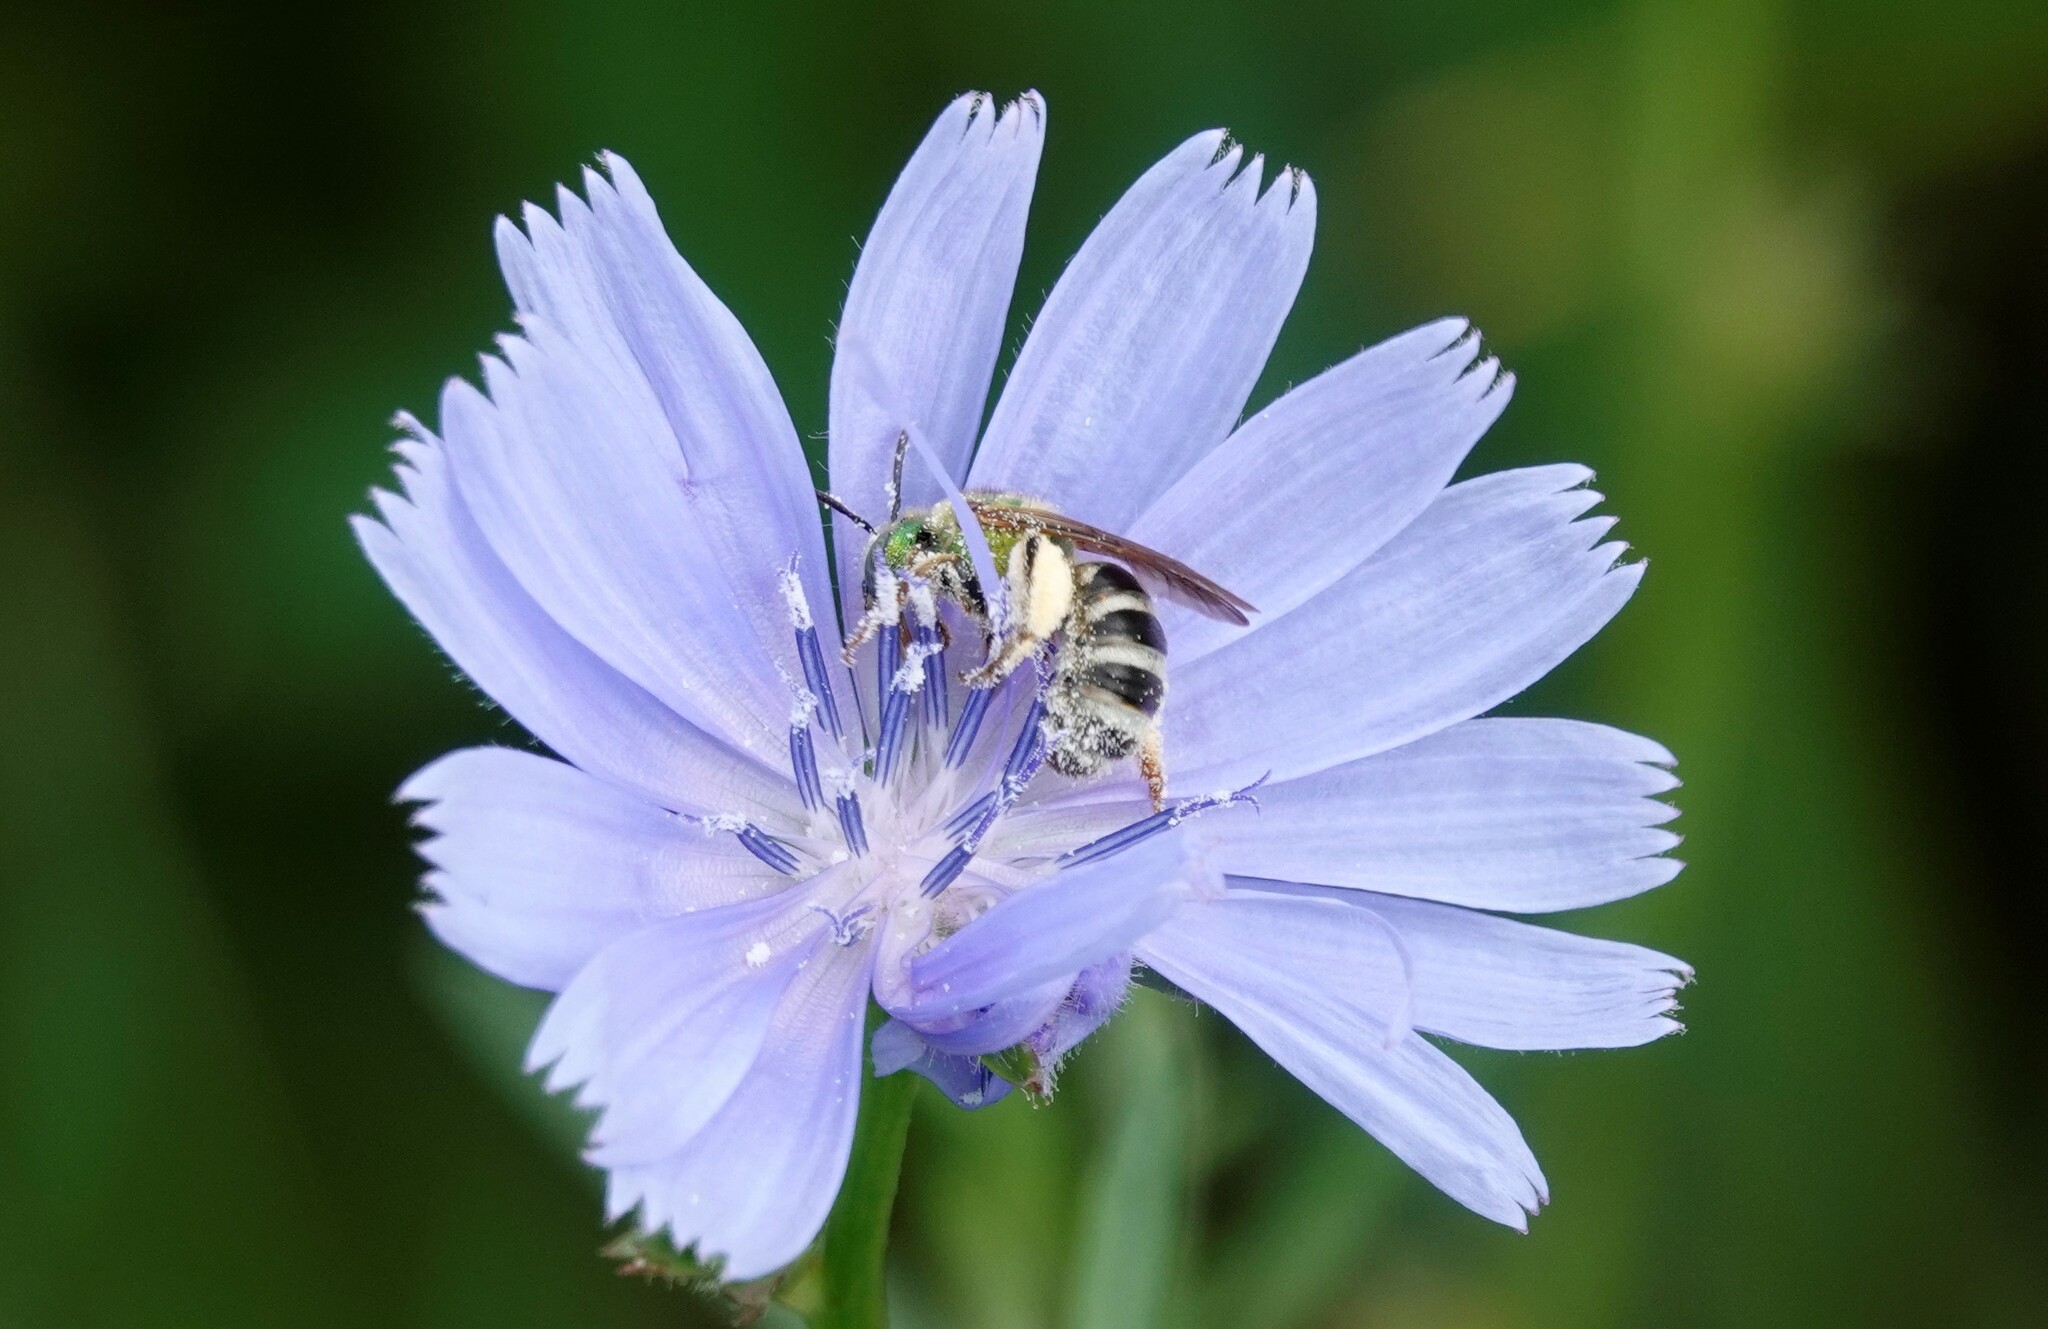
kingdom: Animalia
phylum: Arthropoda
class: Insecta
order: Hymenoptera
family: Halictidae
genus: Agapostemon
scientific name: Agapostemon virescens
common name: Bicolored striped sweat bee
